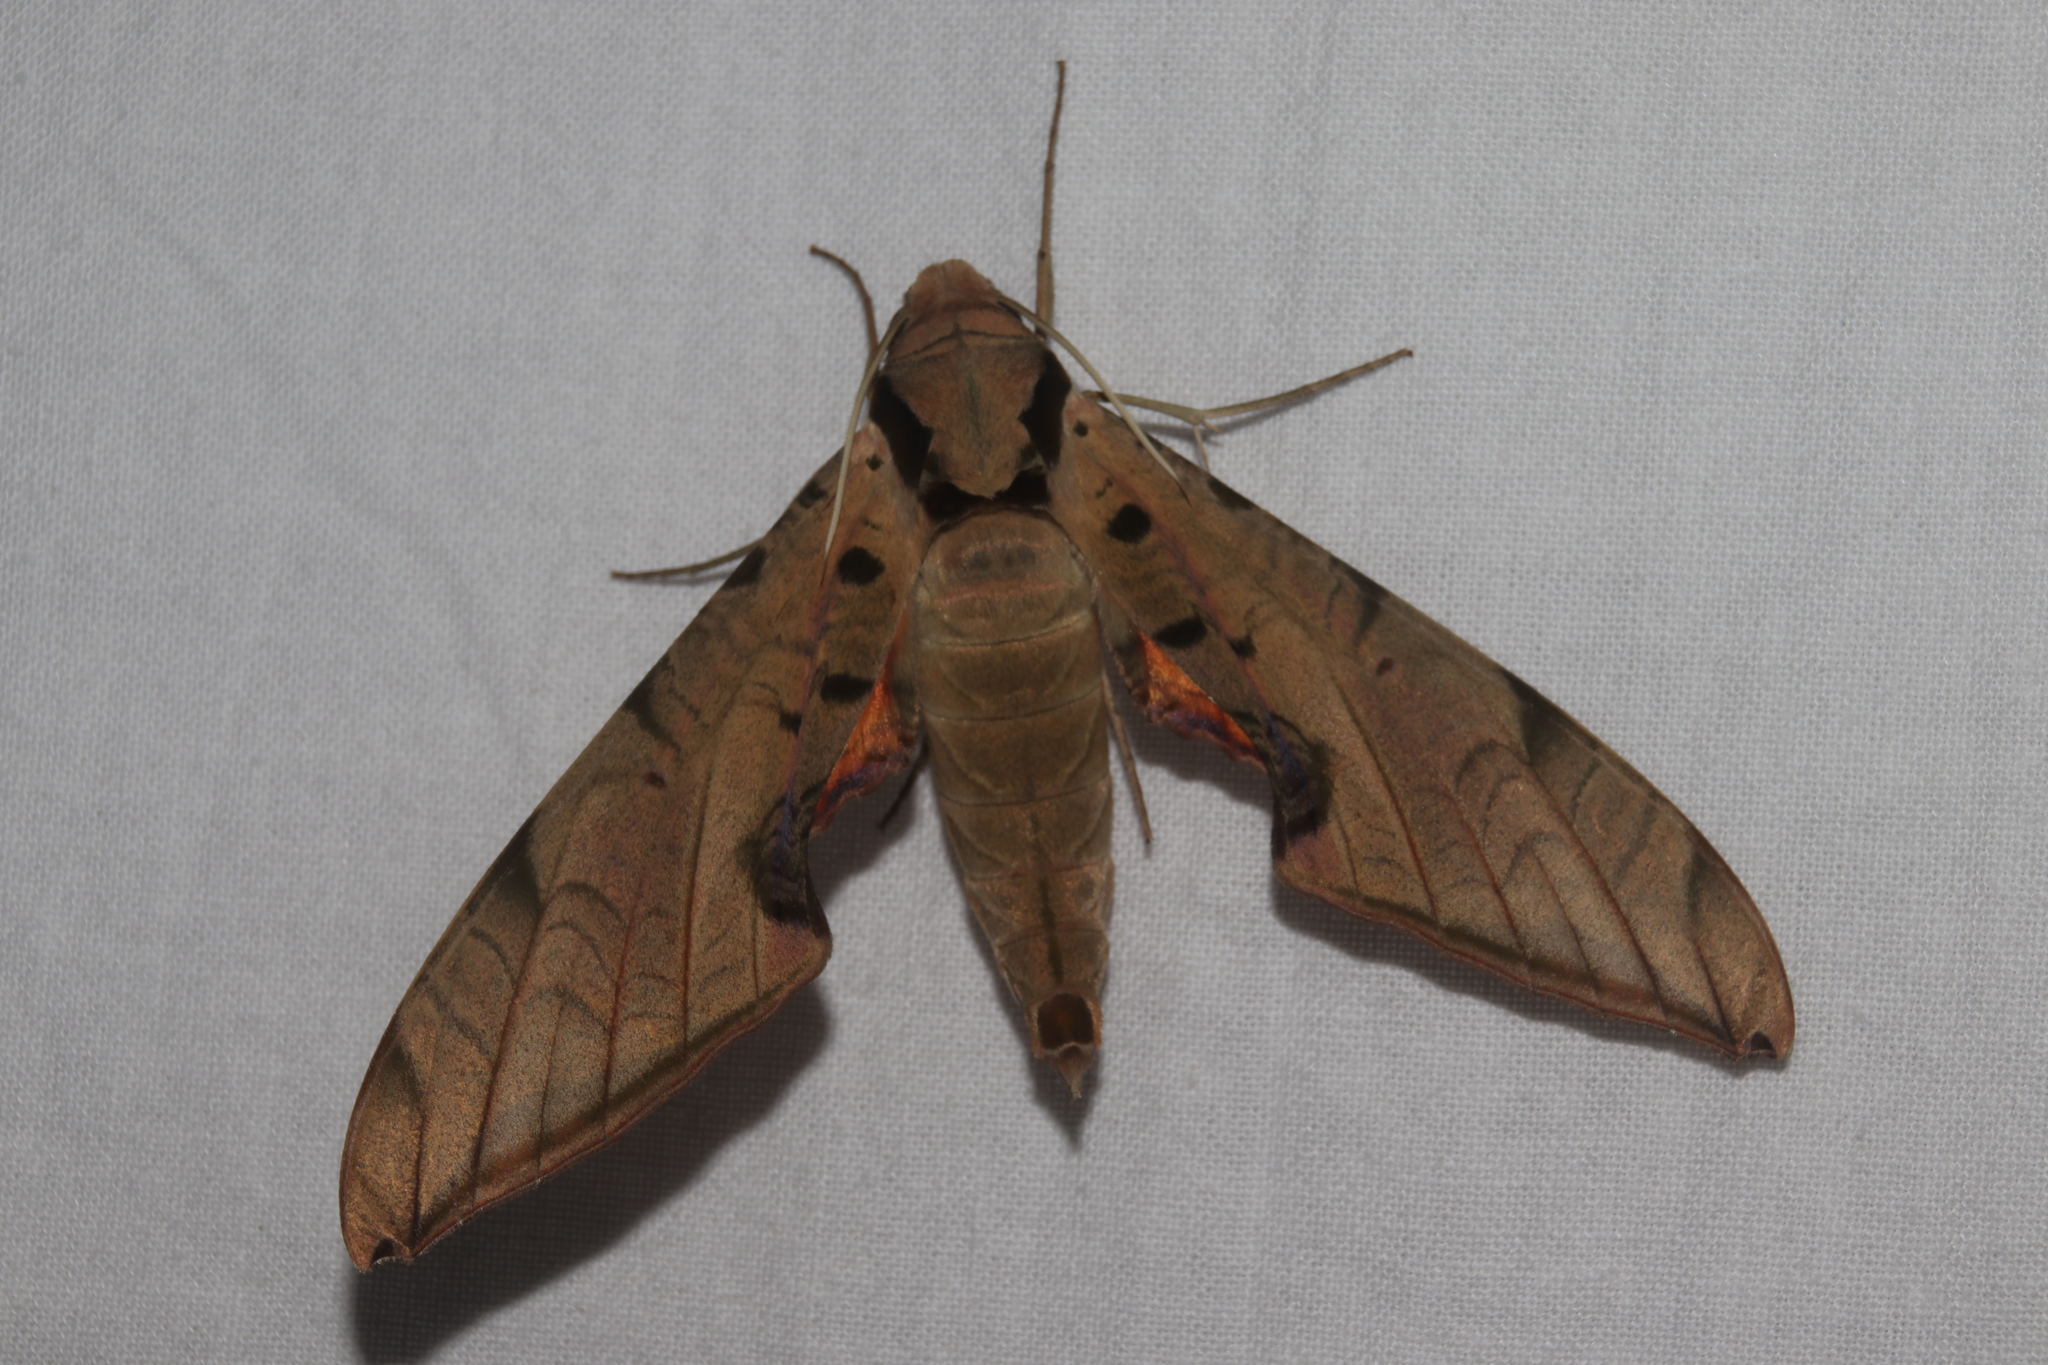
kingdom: Animalia
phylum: Arthropoda
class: Insecta
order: Lepidoptera
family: Sphingidae
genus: Protambulyx
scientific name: Protambulyx strigilis
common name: Streaked sphinx
